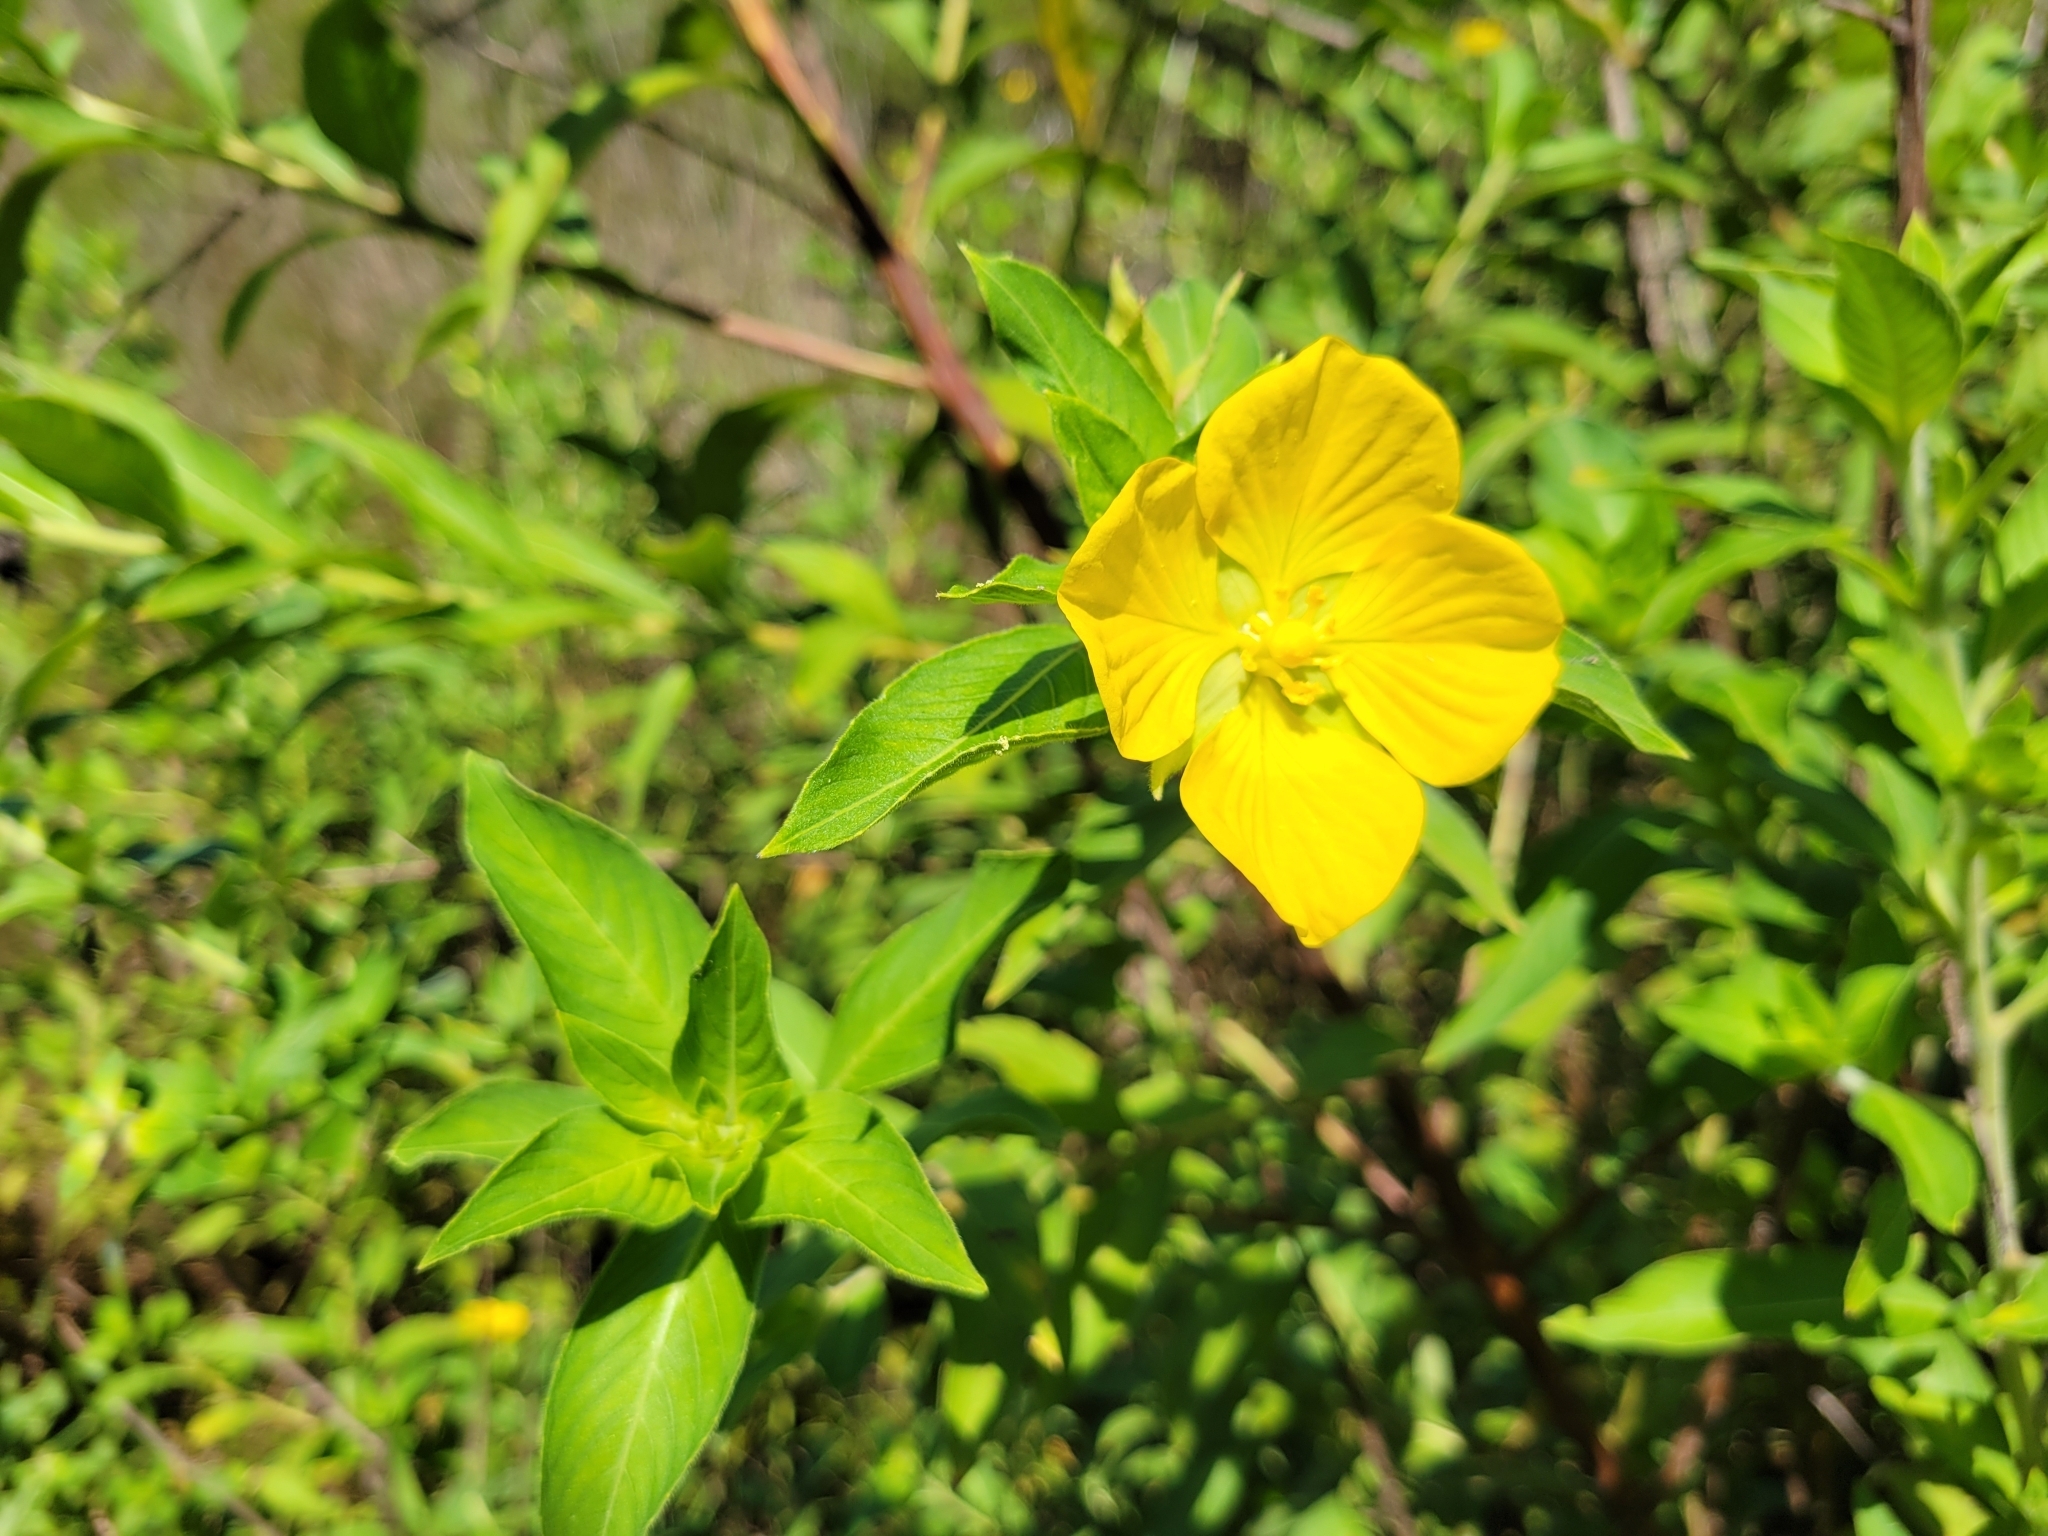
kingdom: Plantae
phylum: Tracheophyta
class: Magnoliopsida
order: Myrtales
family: Onagraceae
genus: Ludwigia
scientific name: Ludwigia peruviana
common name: Peruvian primrose-willow
